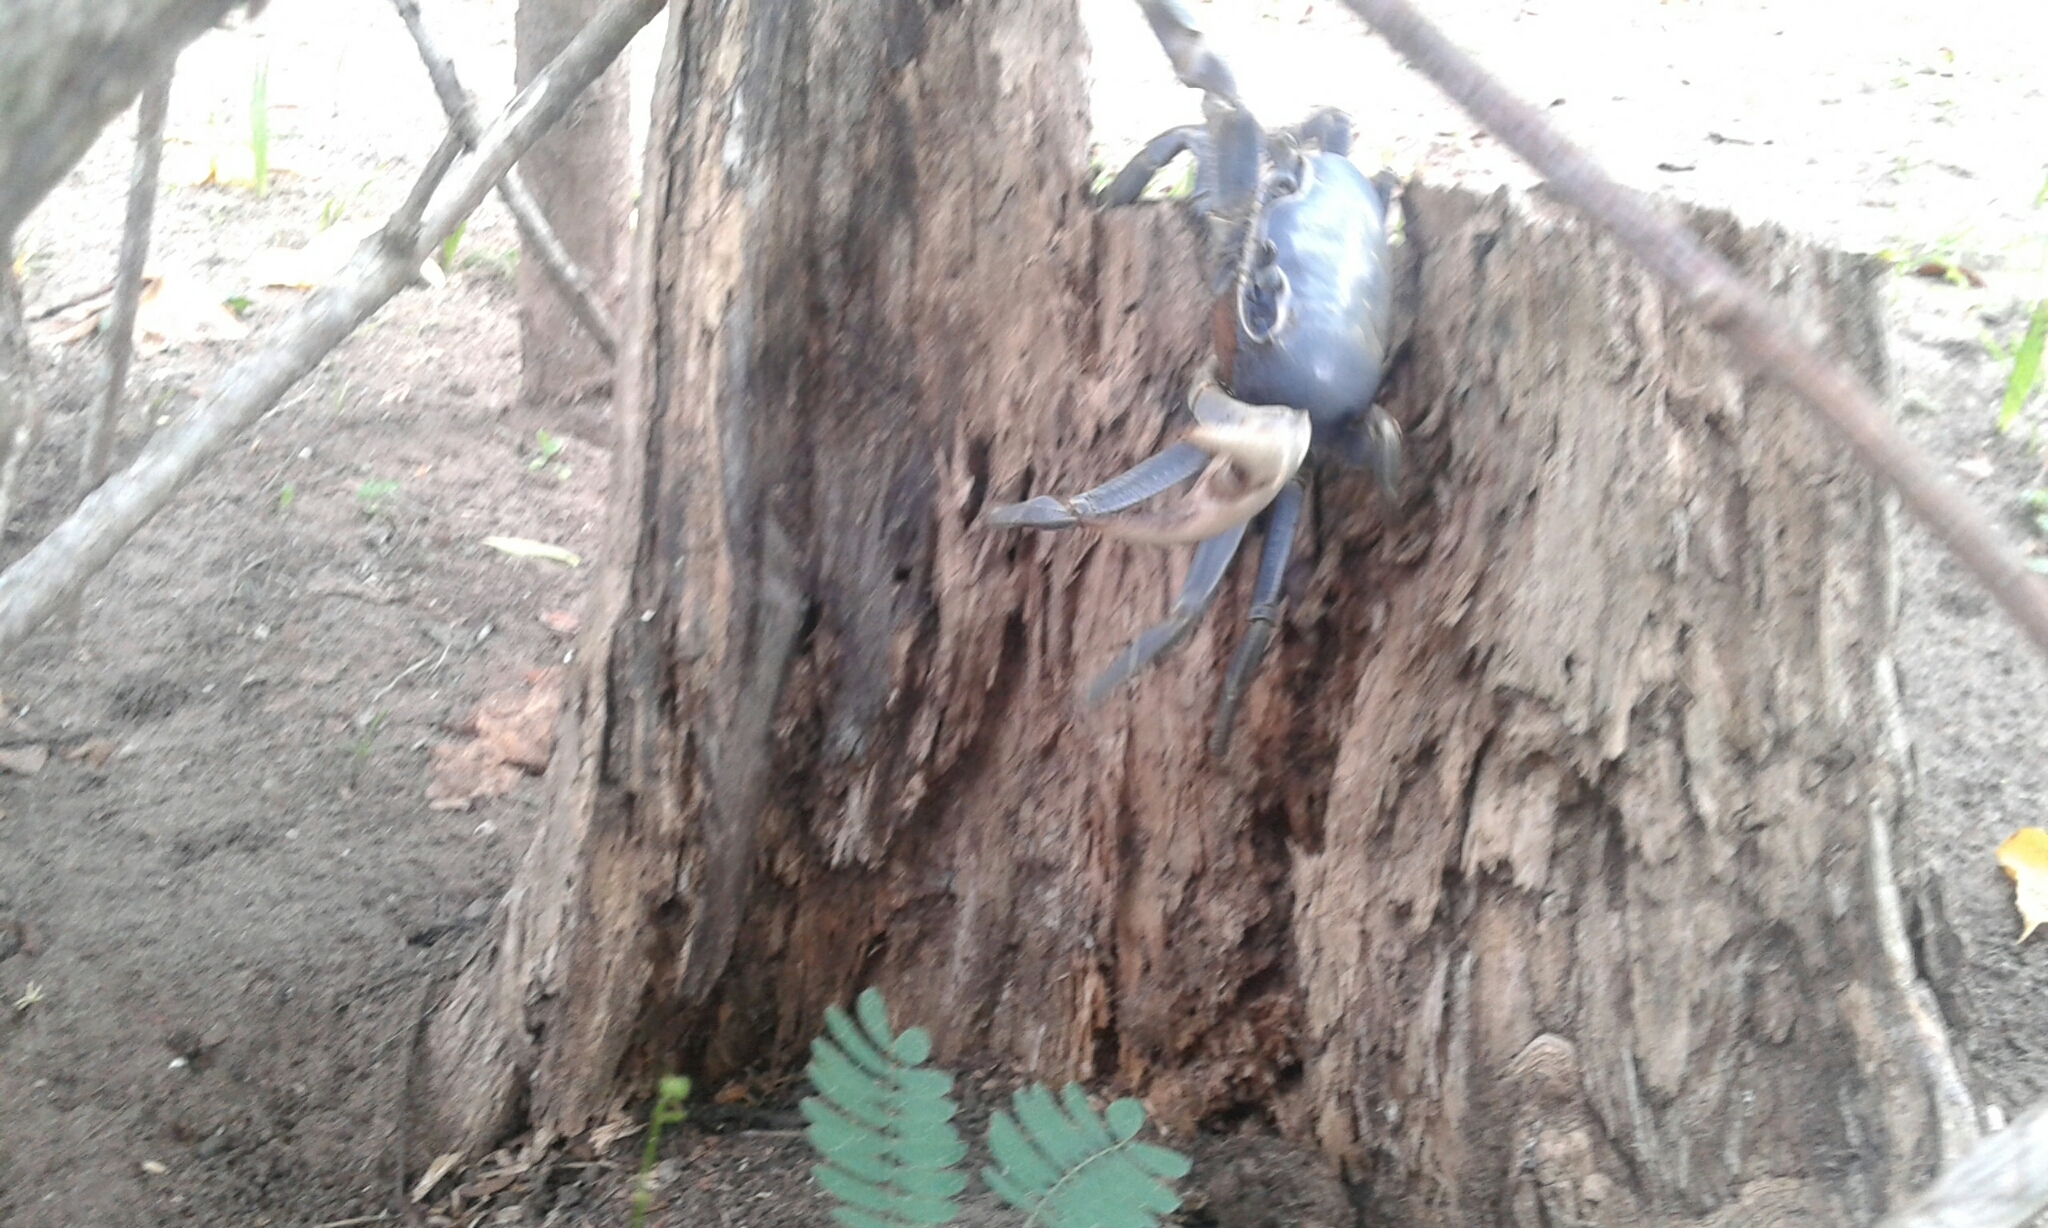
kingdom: Animalia
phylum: Arthropoda
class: Malacostraca
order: Decapoda
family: Gecarcinidae
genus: Cardisoma
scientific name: Cardisoma guanhumi
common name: Great land crab
